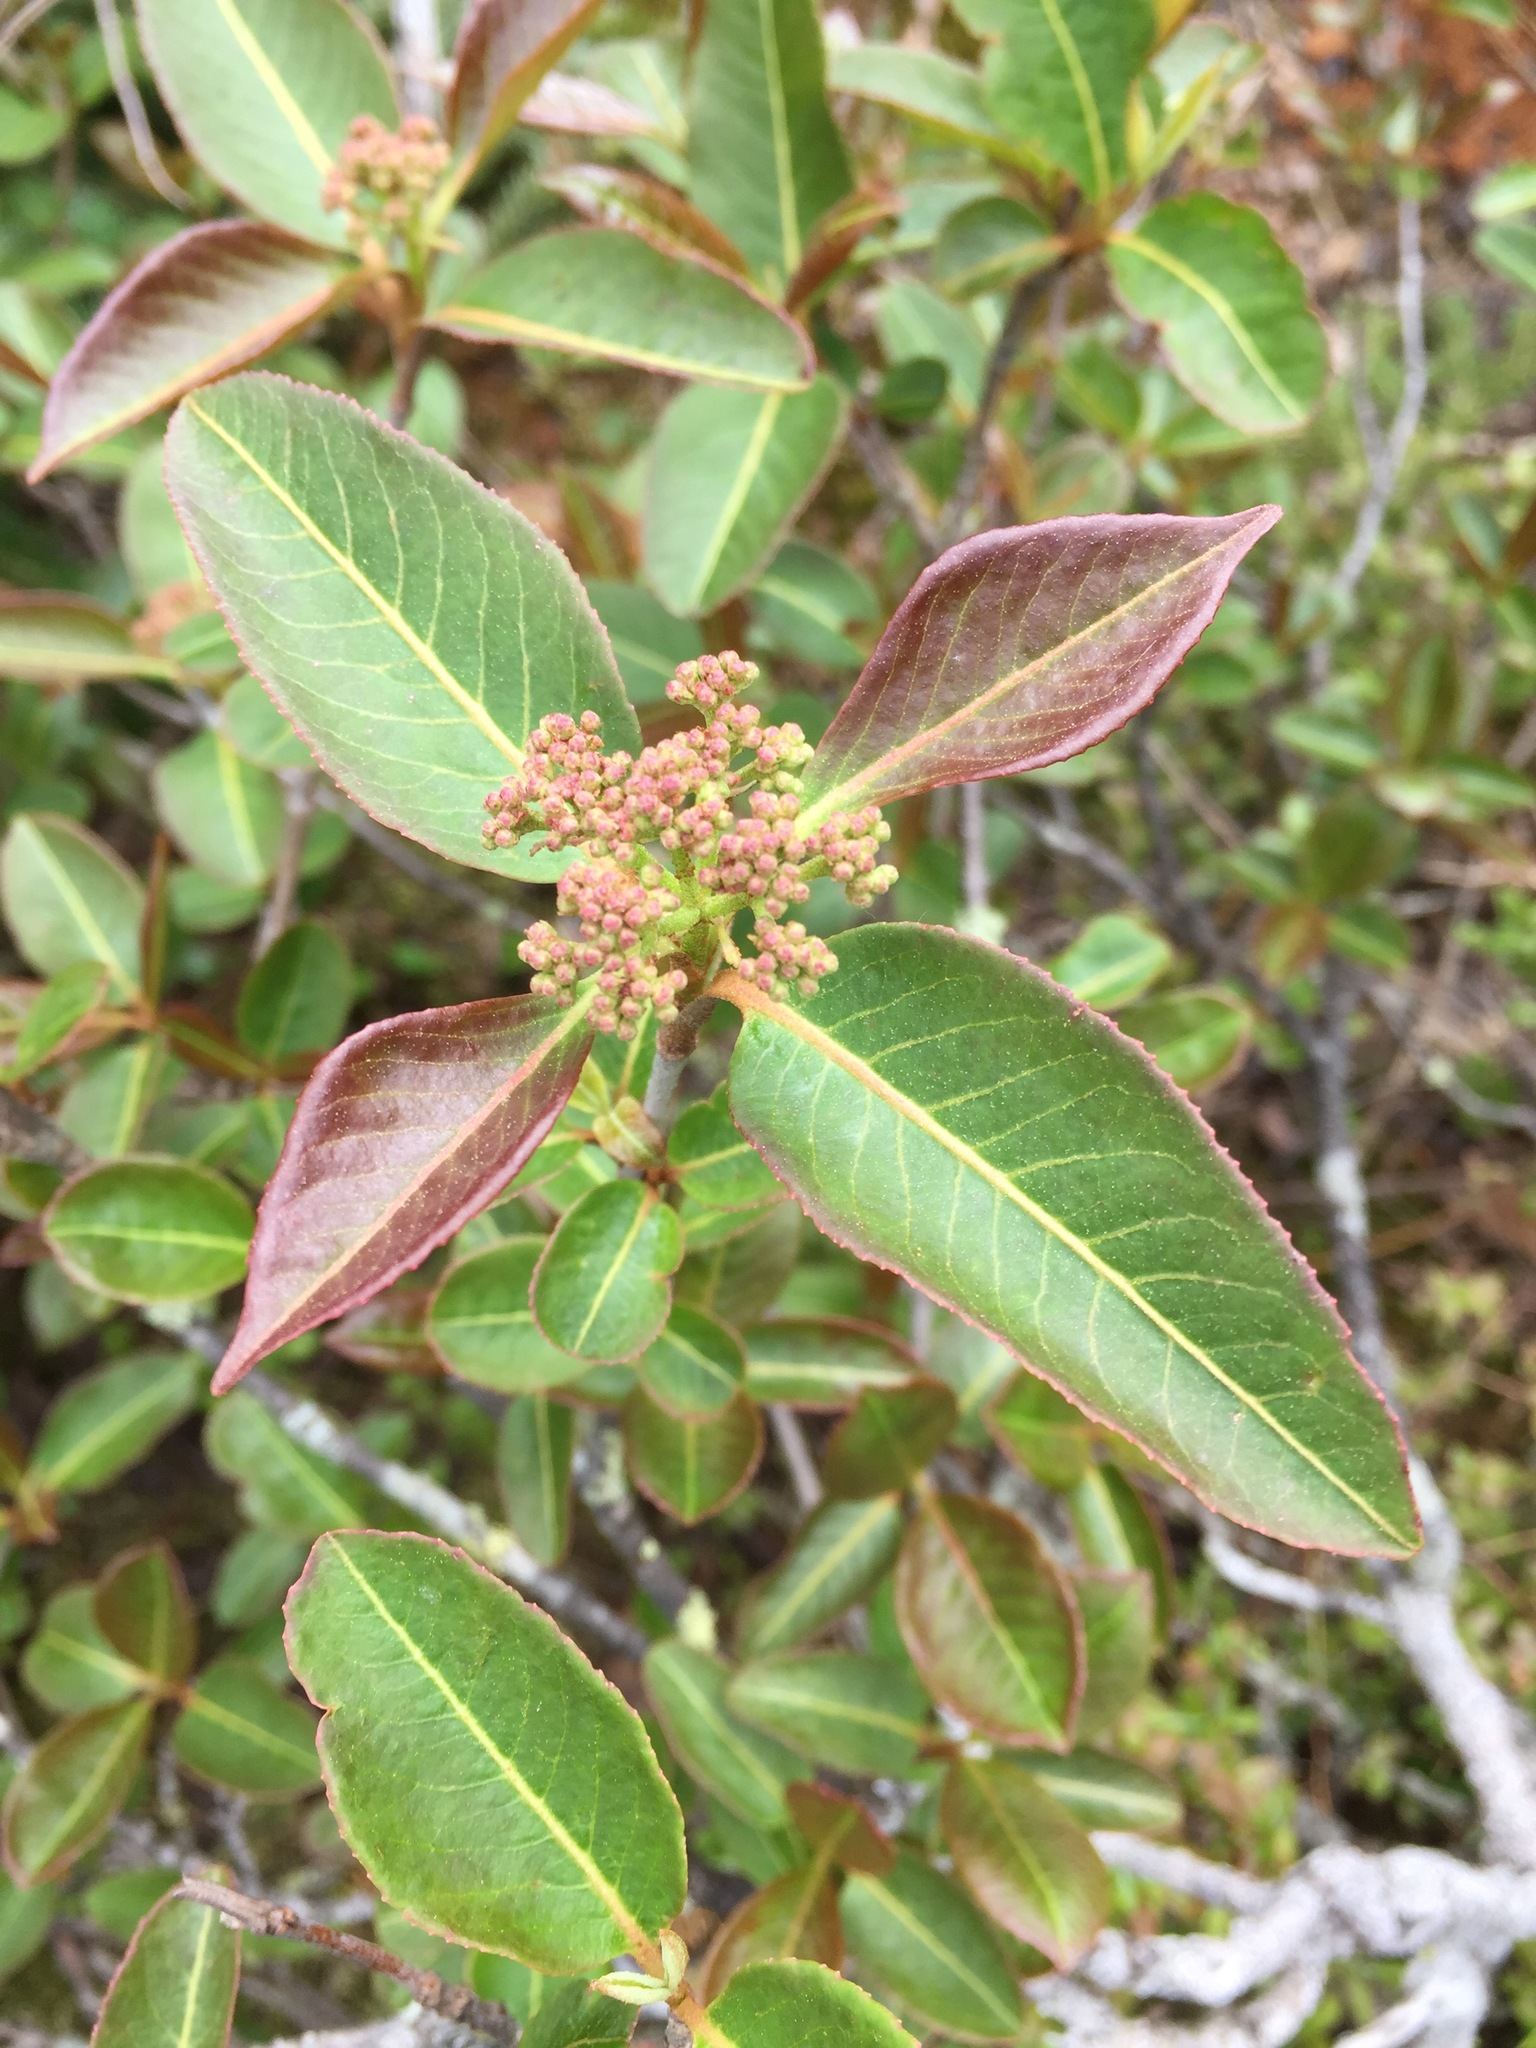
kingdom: Plantae
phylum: Tracheophyta
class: Magnoliopsida
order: Dipsacales
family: Viburnaceae
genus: Viburnum
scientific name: Viburnum cassinoides
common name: Swamp haw
